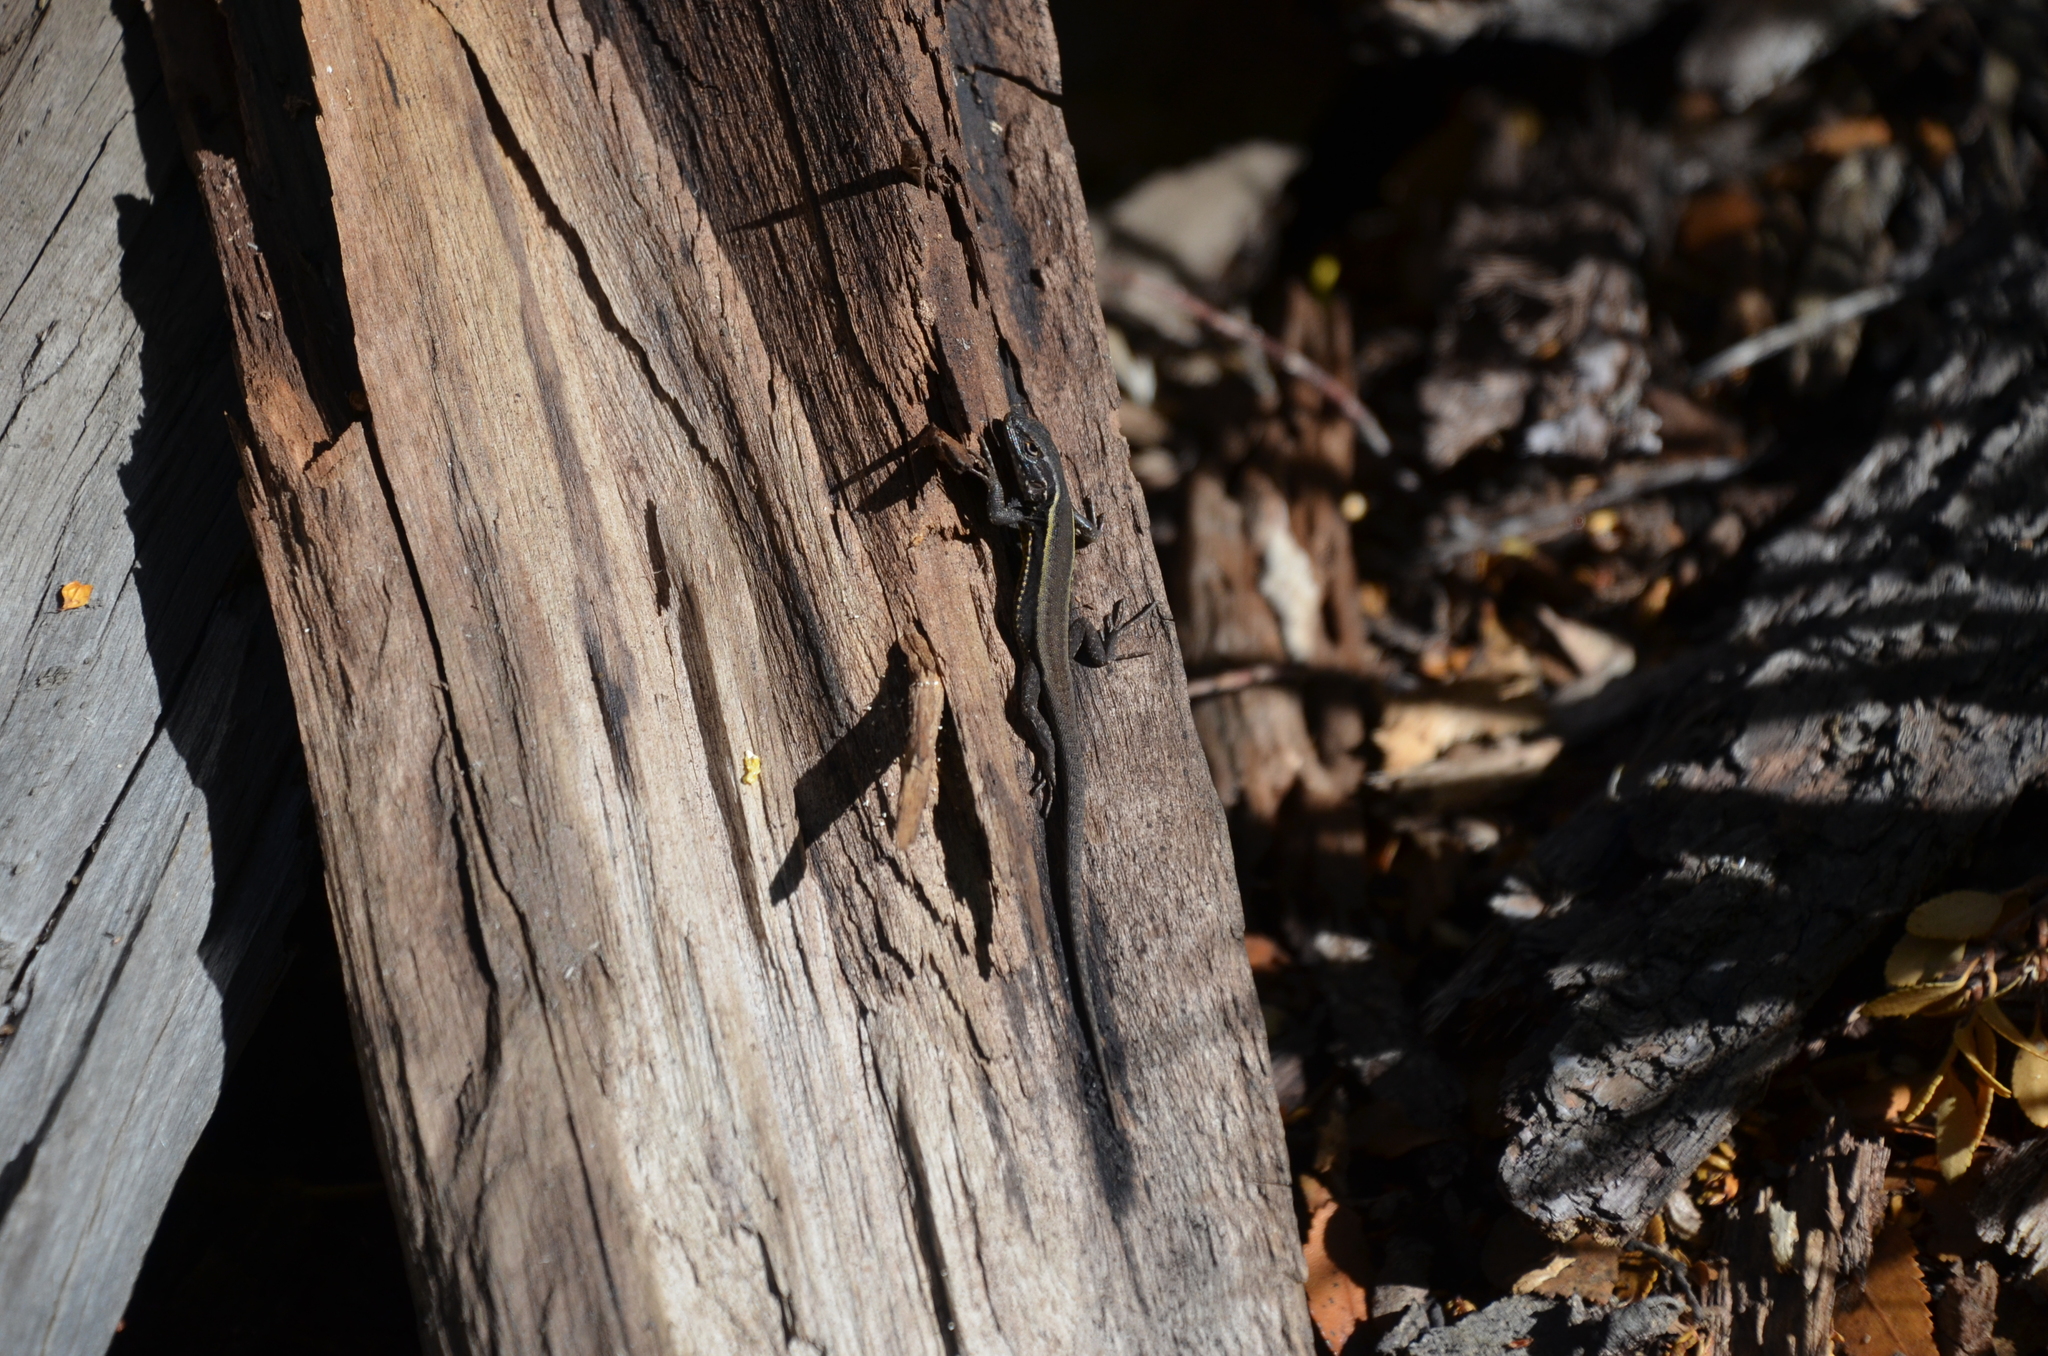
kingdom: Animalia
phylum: Chordata
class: Squamata
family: Liolaemidae
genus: Liolaemus
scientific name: Liolaemus pictus
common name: Painted tree iguana
